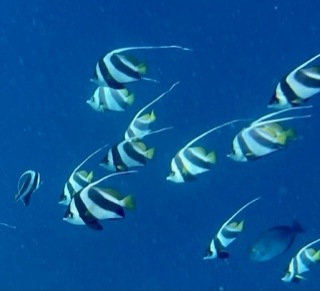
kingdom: Animalia
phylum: Chordata
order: Perciformes
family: Chaetodontidae
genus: Heniochus
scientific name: Heniochus diphreutes
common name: Pennantfish
